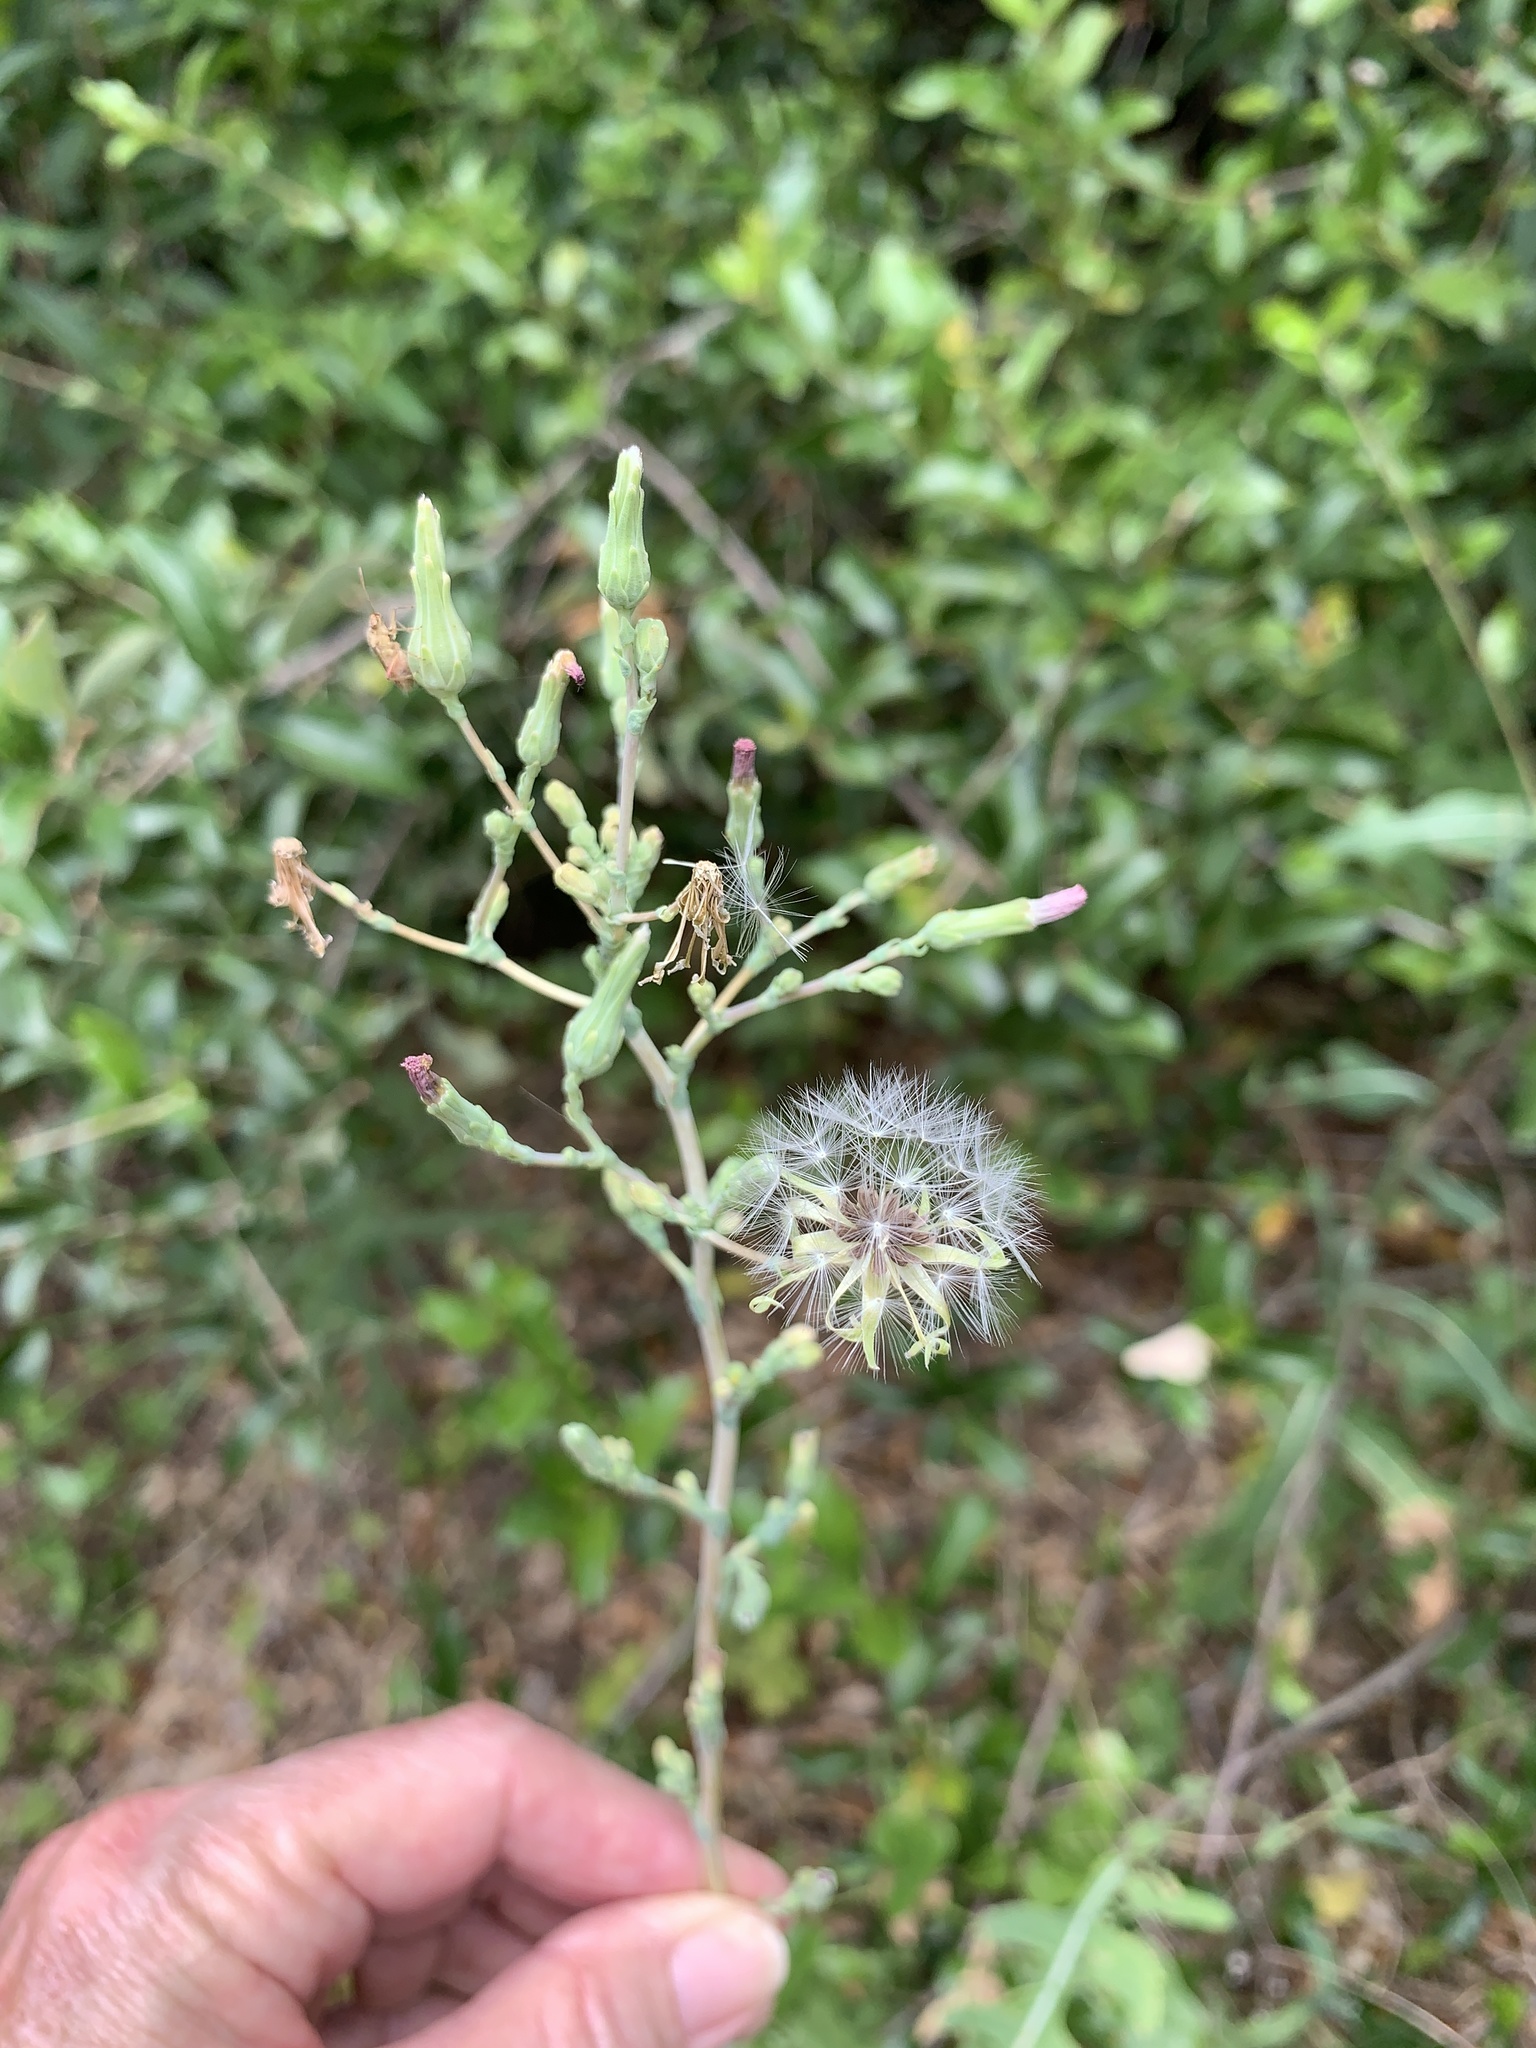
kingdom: Plantae
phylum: Tracheophyta
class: Magnoliopsida
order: Asterales
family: Asteraceae
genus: Lactuca
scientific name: Lactuca serriola
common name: Prickly lettuce
